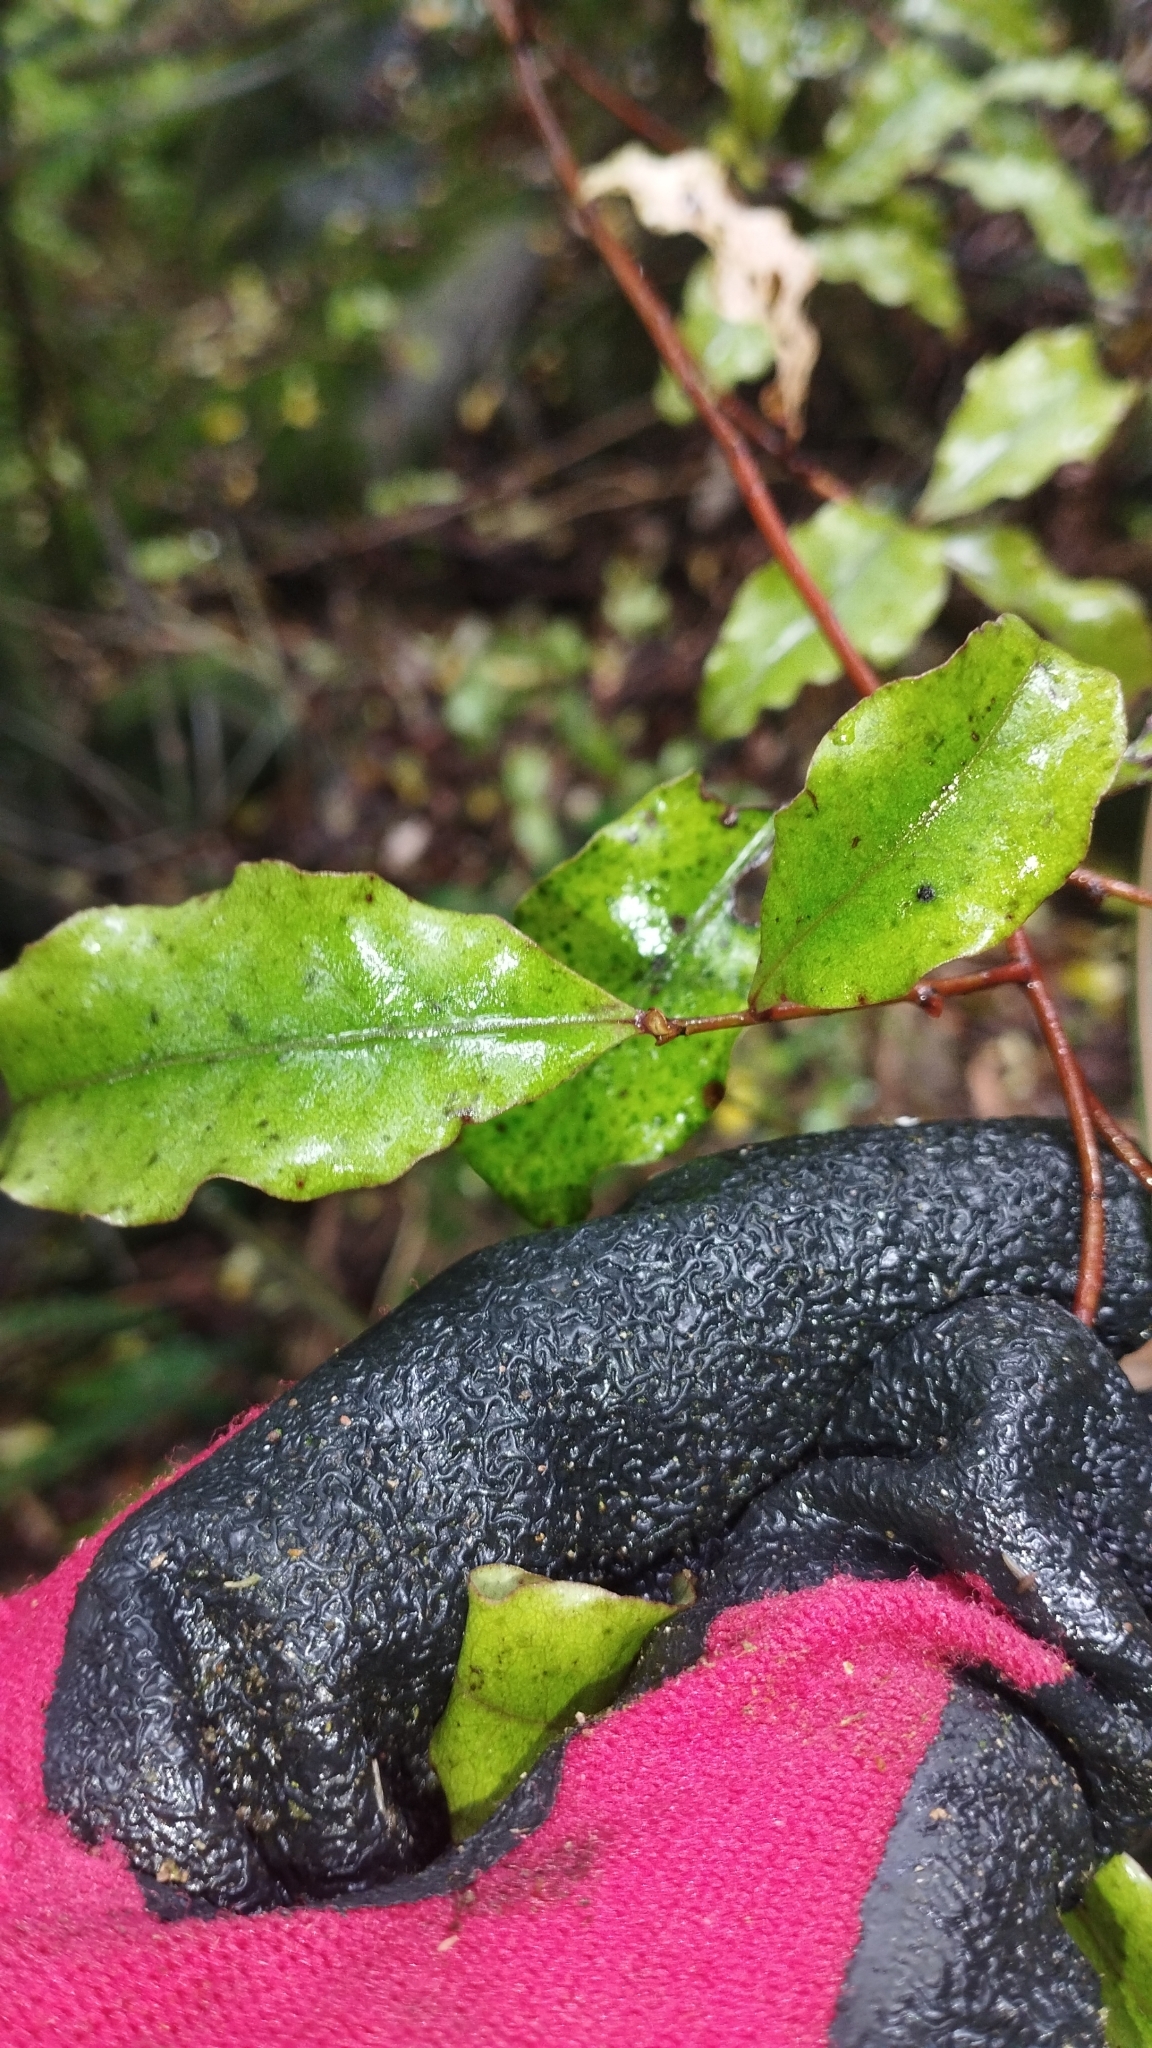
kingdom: Plantae
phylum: Tracheophyta
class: Magnoliopsida
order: Ericales
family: Primulaceae
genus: Myrsine
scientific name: Myrsine australis
